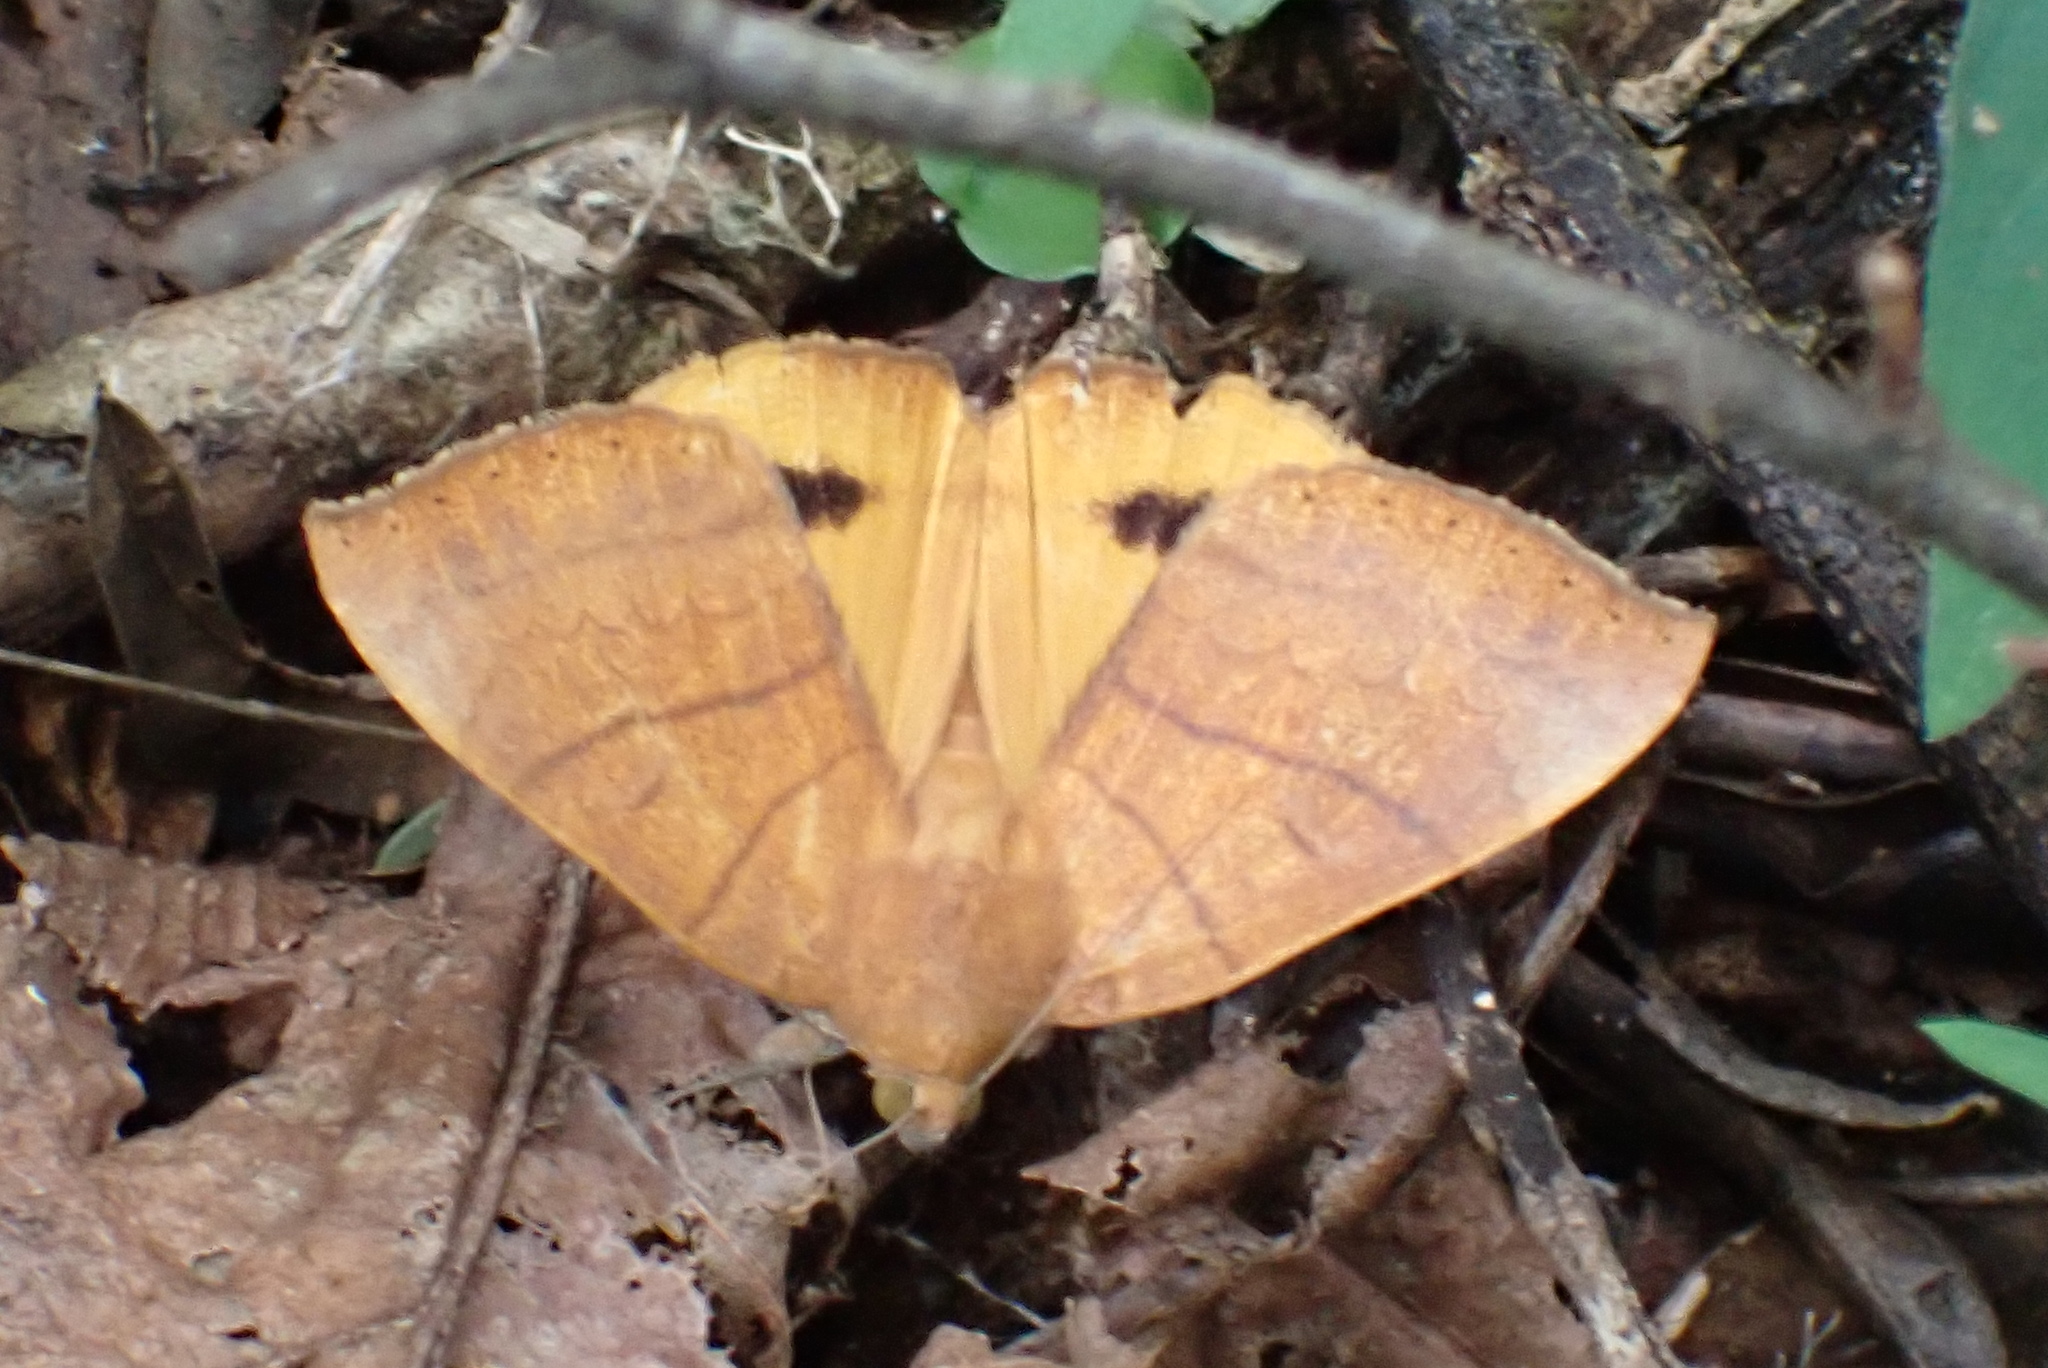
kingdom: Animalia
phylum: Arthropoda
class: Insecta
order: Lepidoptera
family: Erebidae
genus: Achaea
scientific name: Achaea klugii
